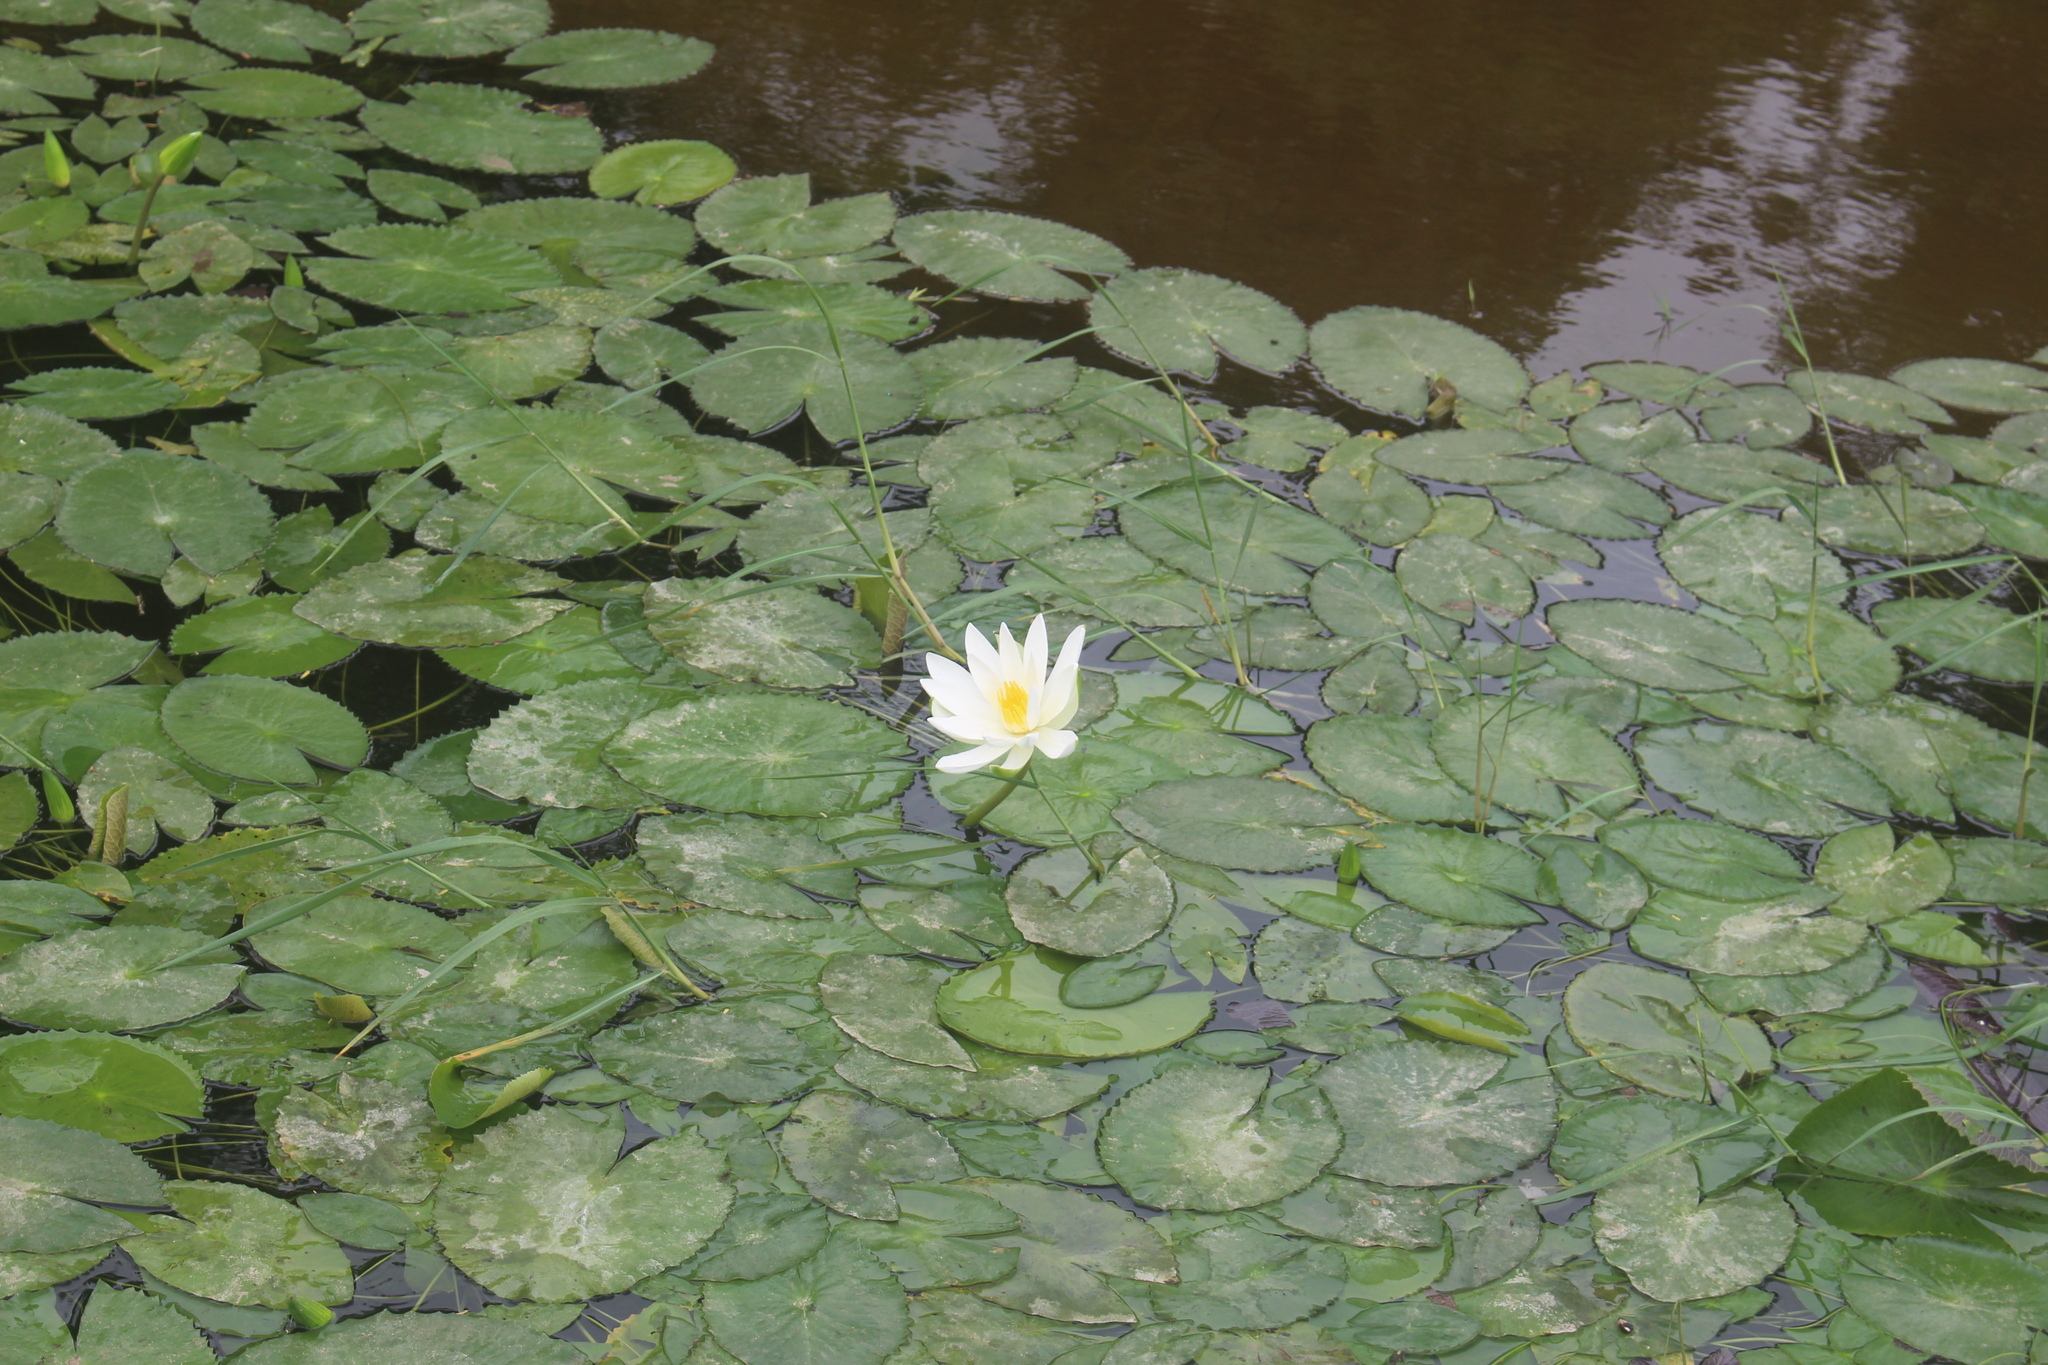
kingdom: Plantae
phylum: Tracheophyta
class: Magnoliopsida
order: Nymphaeales
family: Nymphaeaceae
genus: Nymphaea
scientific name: Nymphaea alba
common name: White water-lily
